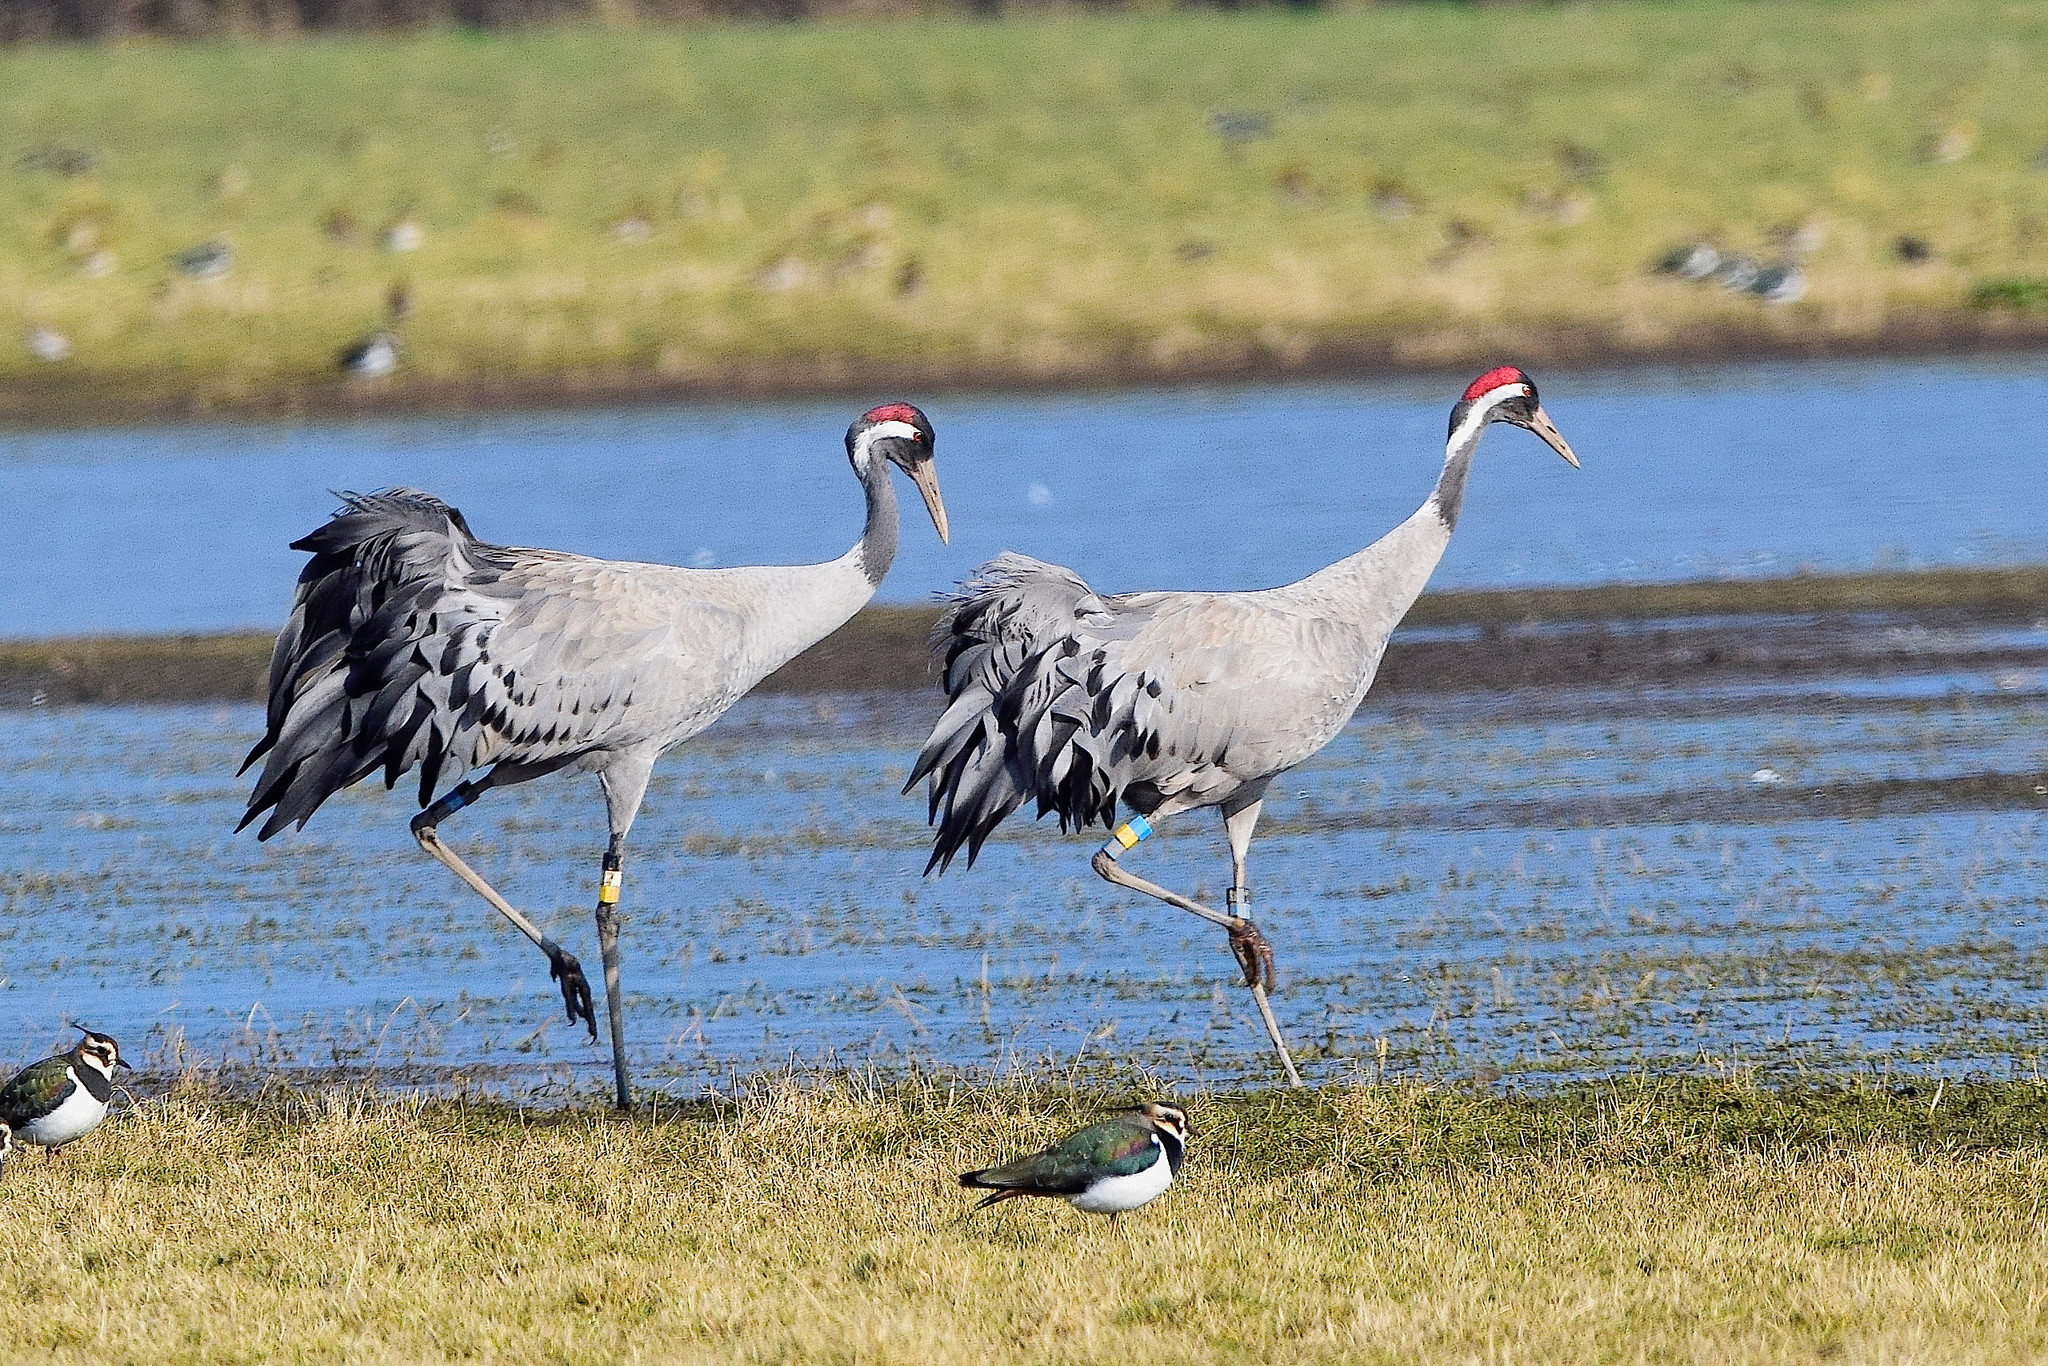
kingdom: Animalia
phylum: Chordata
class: Aves
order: Gruiformes
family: Gruidae
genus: Grus
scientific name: Grus grus
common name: Common crane
